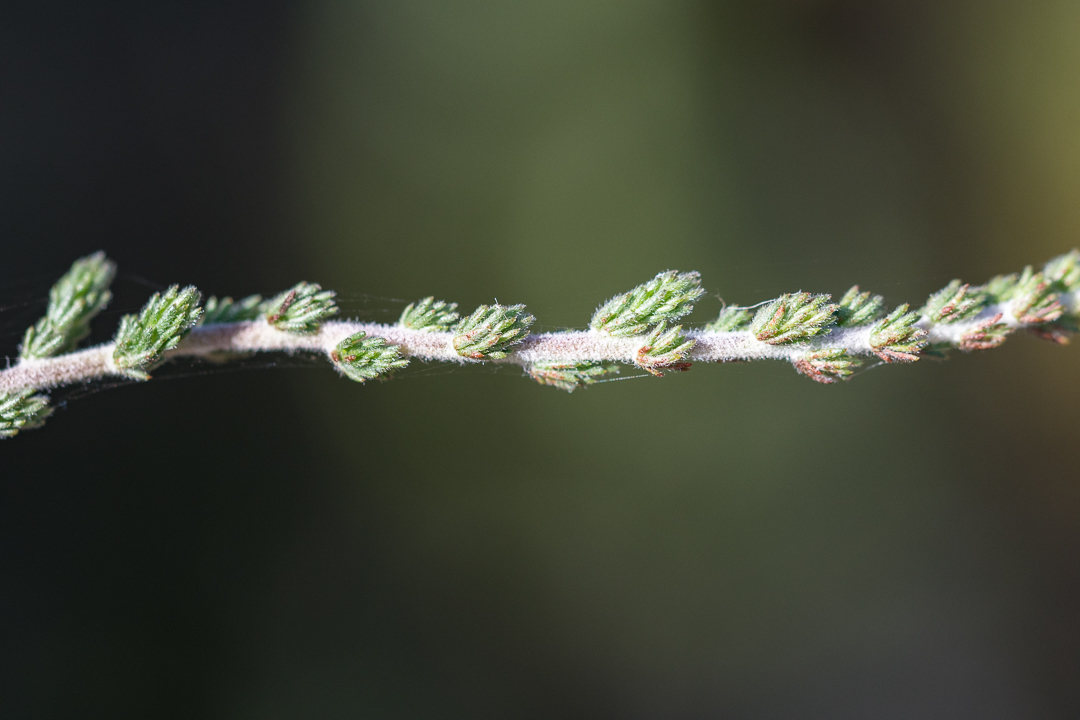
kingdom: Plantae
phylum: Tracheophyta
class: Magnoliopsida
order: Fabales
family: Fabaceae
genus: Aspalathus
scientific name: Aspalathus hispida
